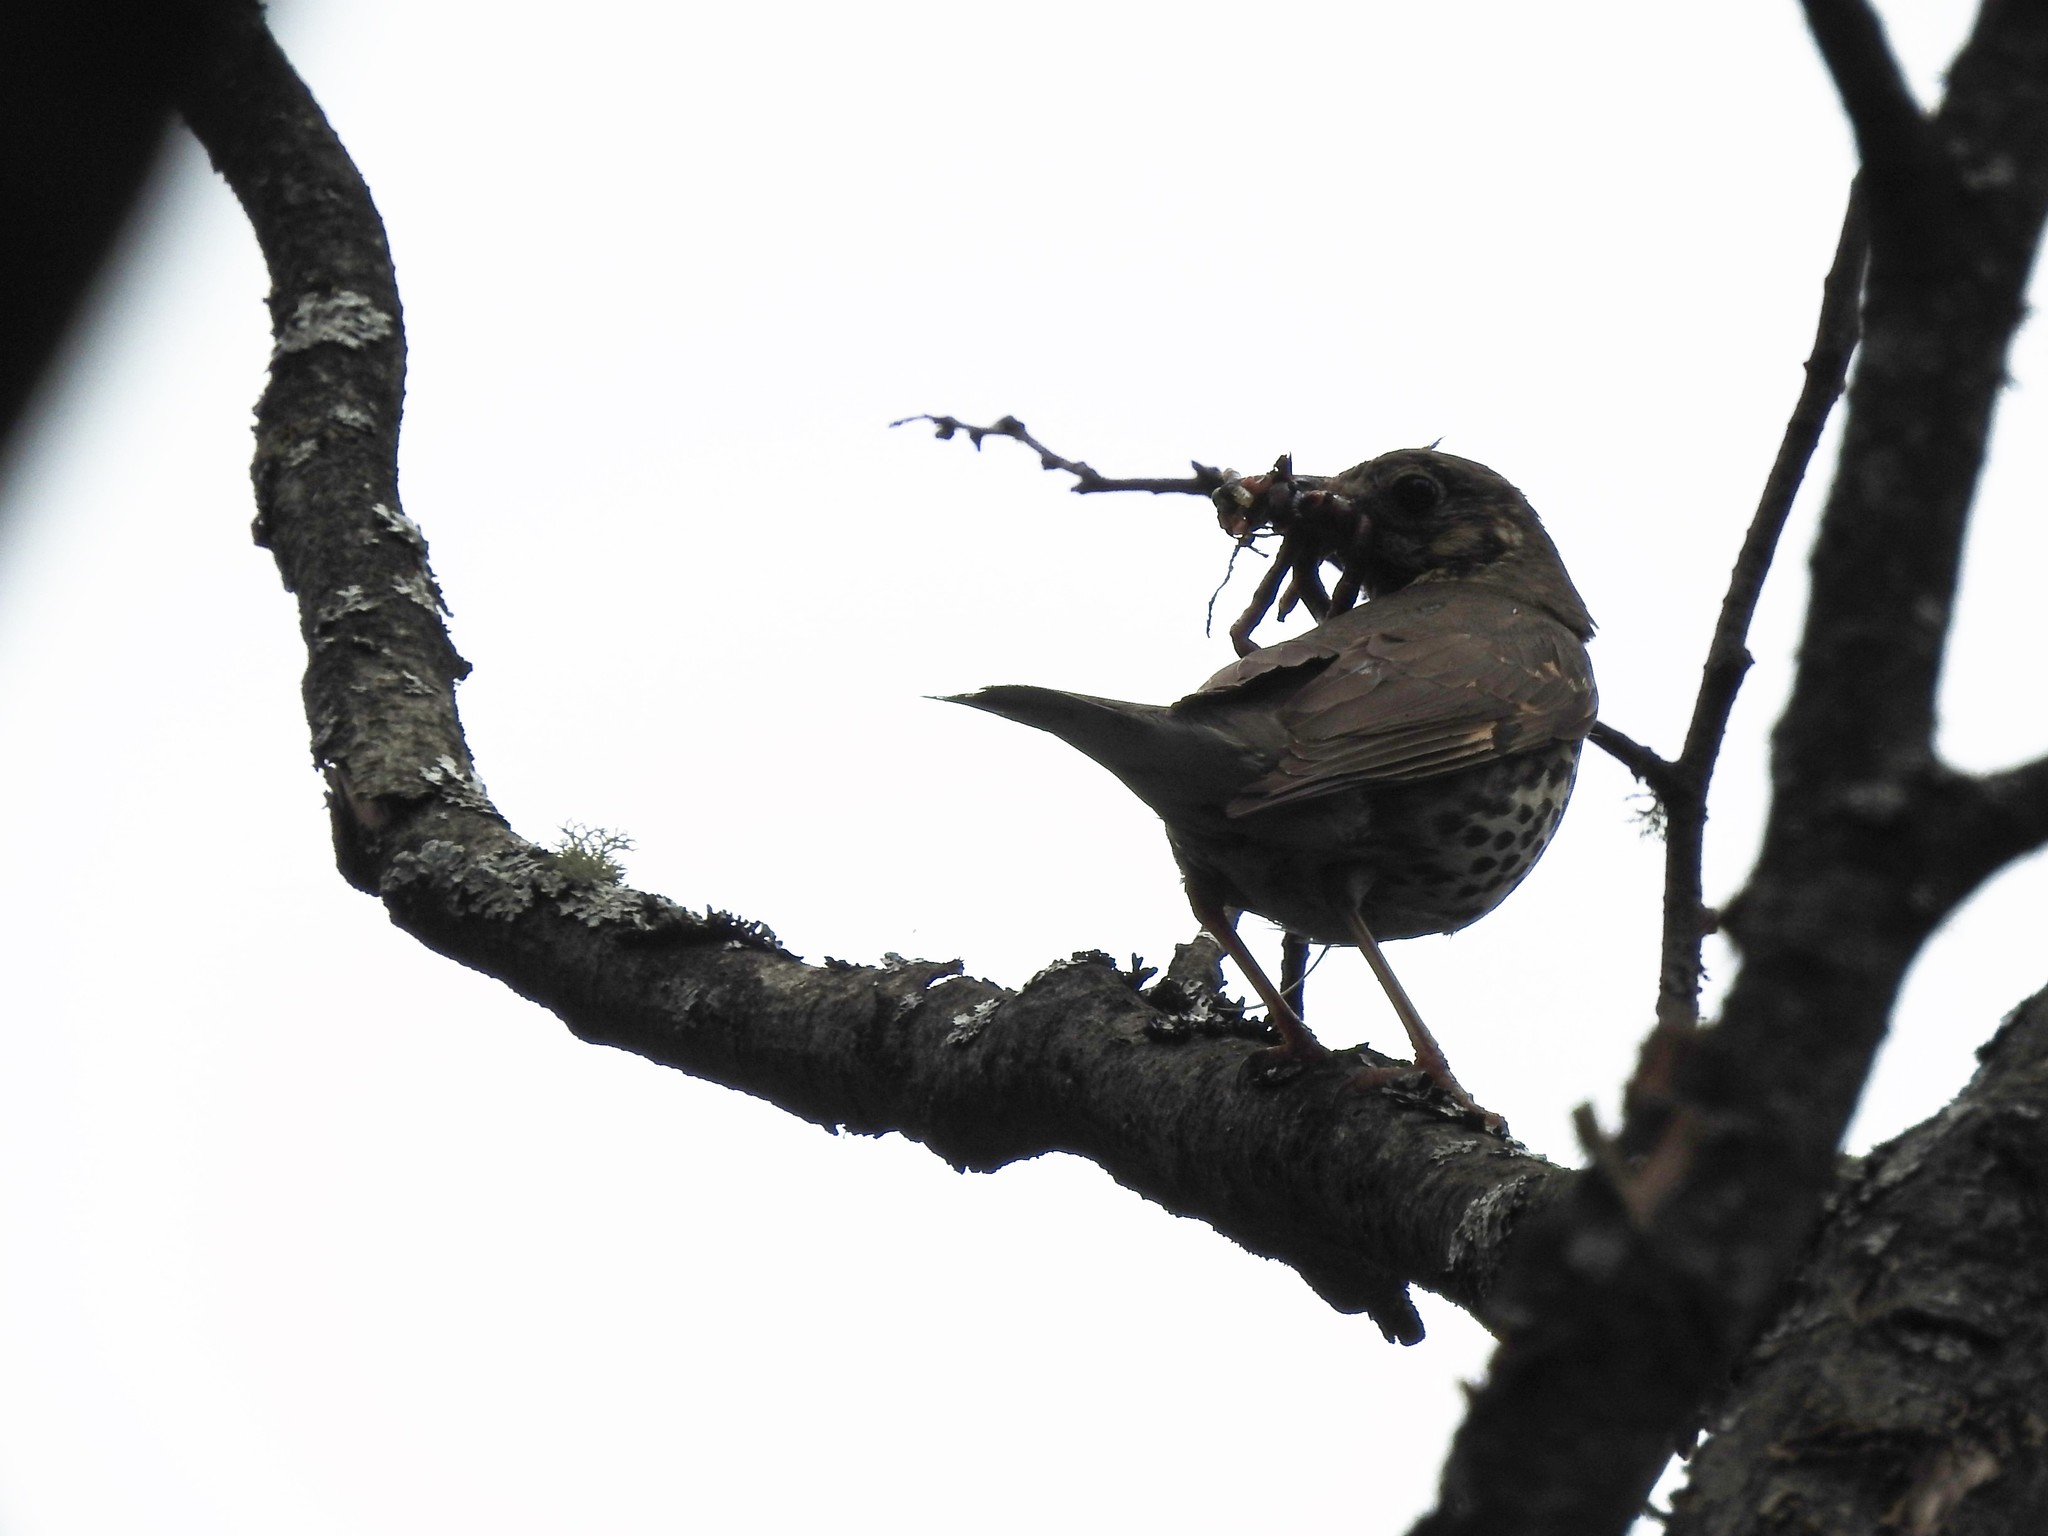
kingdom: Animalia
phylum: Chordata
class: Aves
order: Passeriformes
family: Turdidae
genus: Turdus
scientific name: Turdus philomelos
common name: Song thrush
